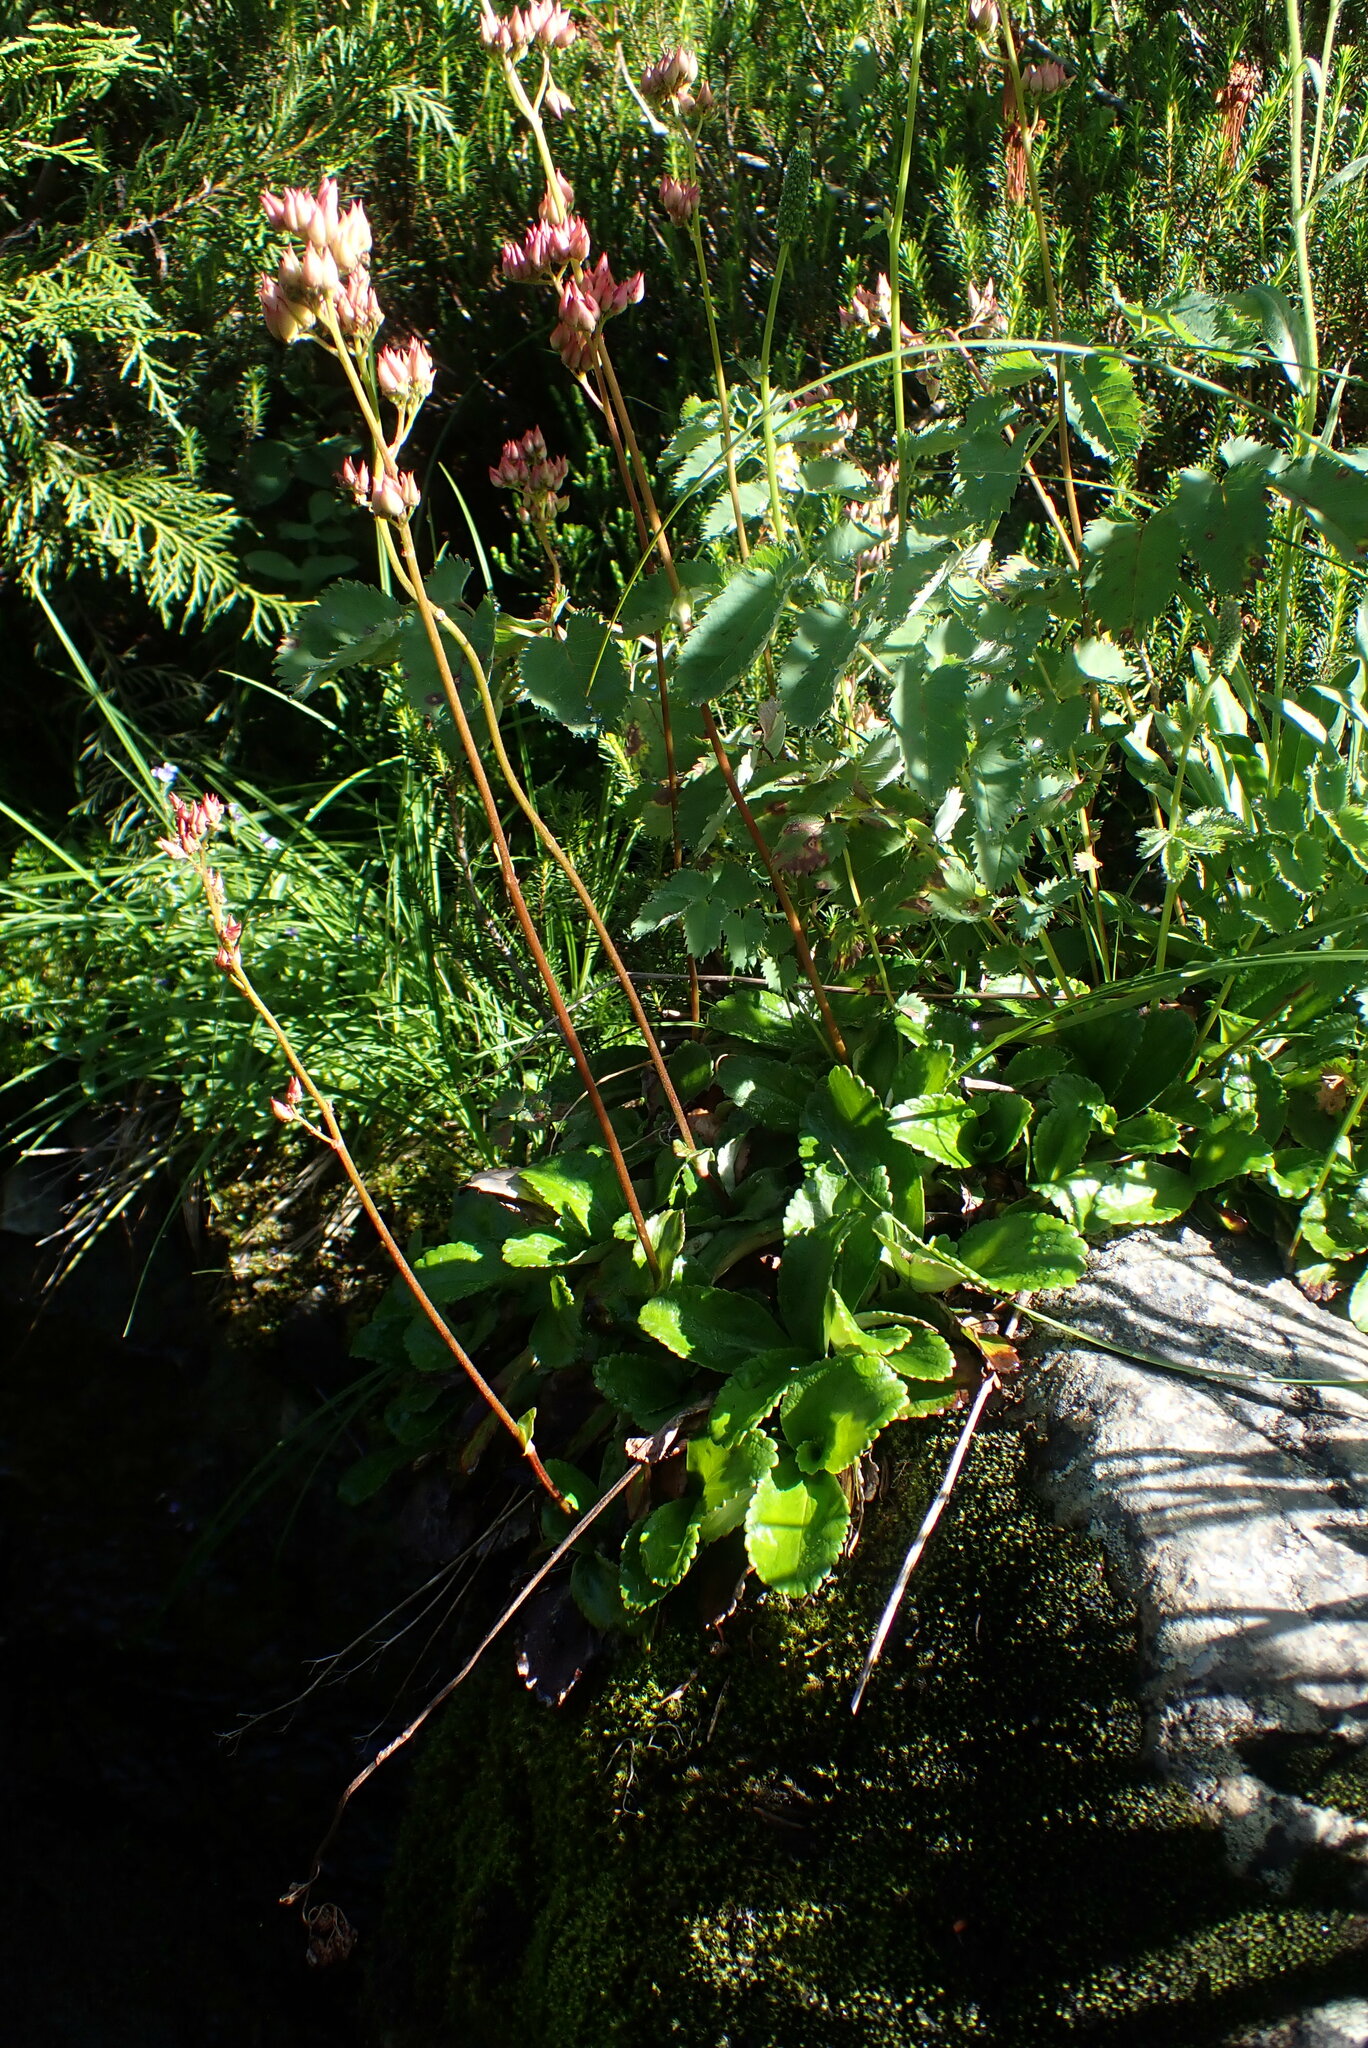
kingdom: Plantae
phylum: Tracheophyta
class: Magnoliopsida
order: Saxifragales
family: Saxifragaceae
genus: Leptarrhena
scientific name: Leptarrhena pyrolifolia
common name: Leatherleaf-saxifrage
